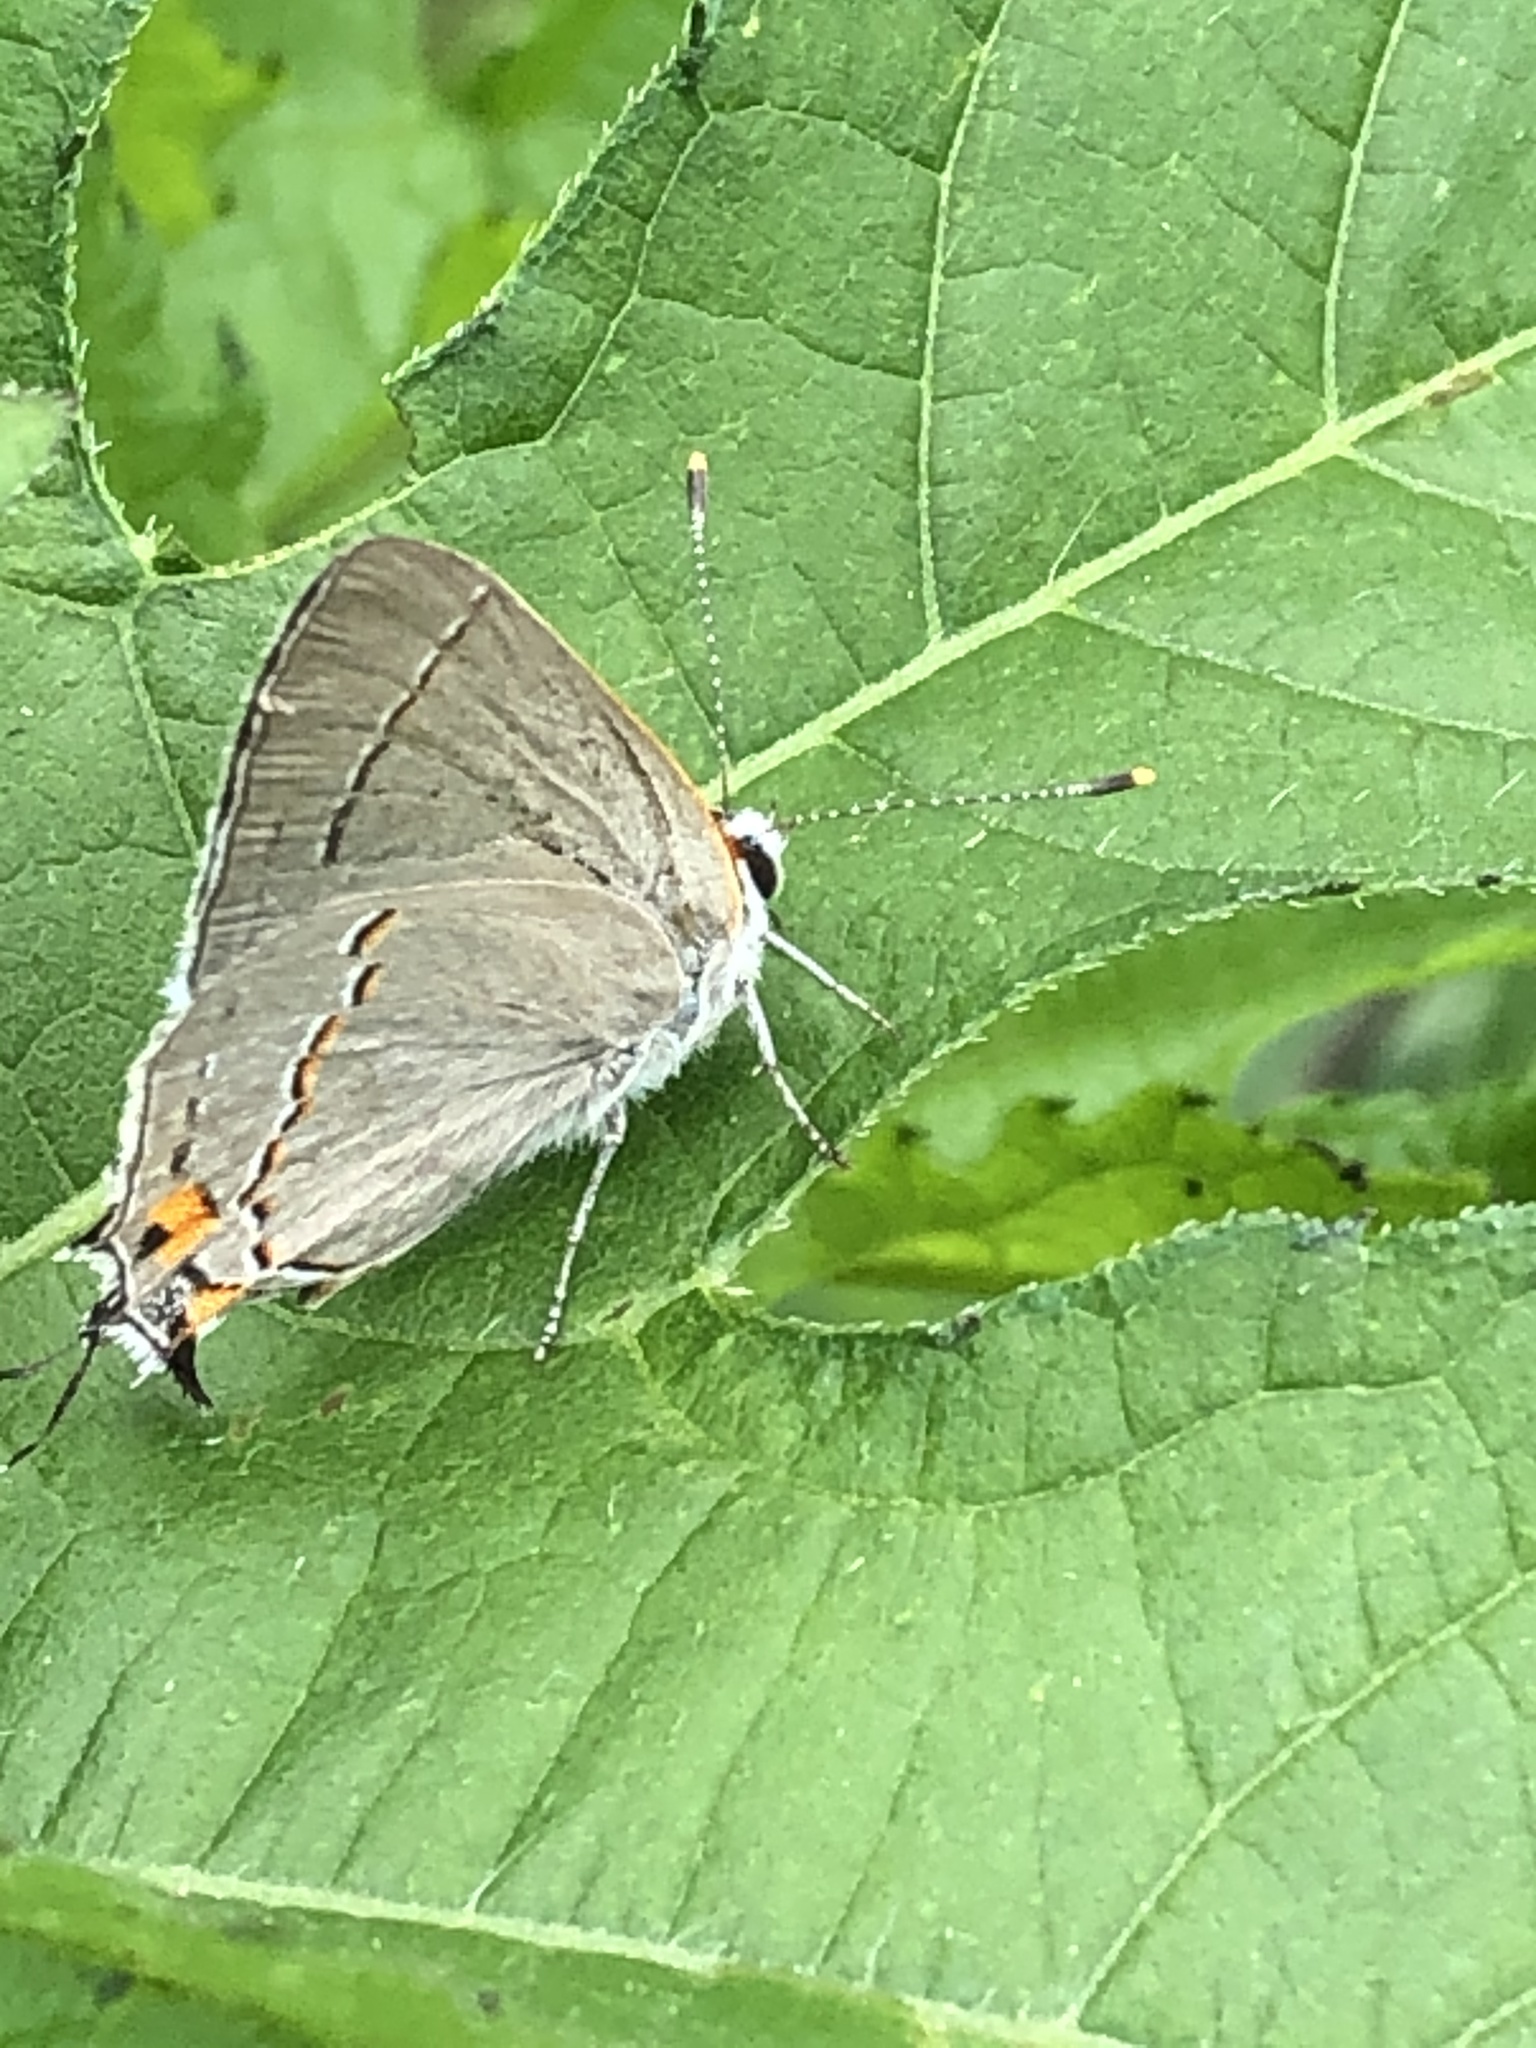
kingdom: Animalia
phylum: Arthropoda
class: Insecta
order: Lepidoptera
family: Lycaenidae
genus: Strymon
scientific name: Strymon melinus
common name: Gray hairstreak
